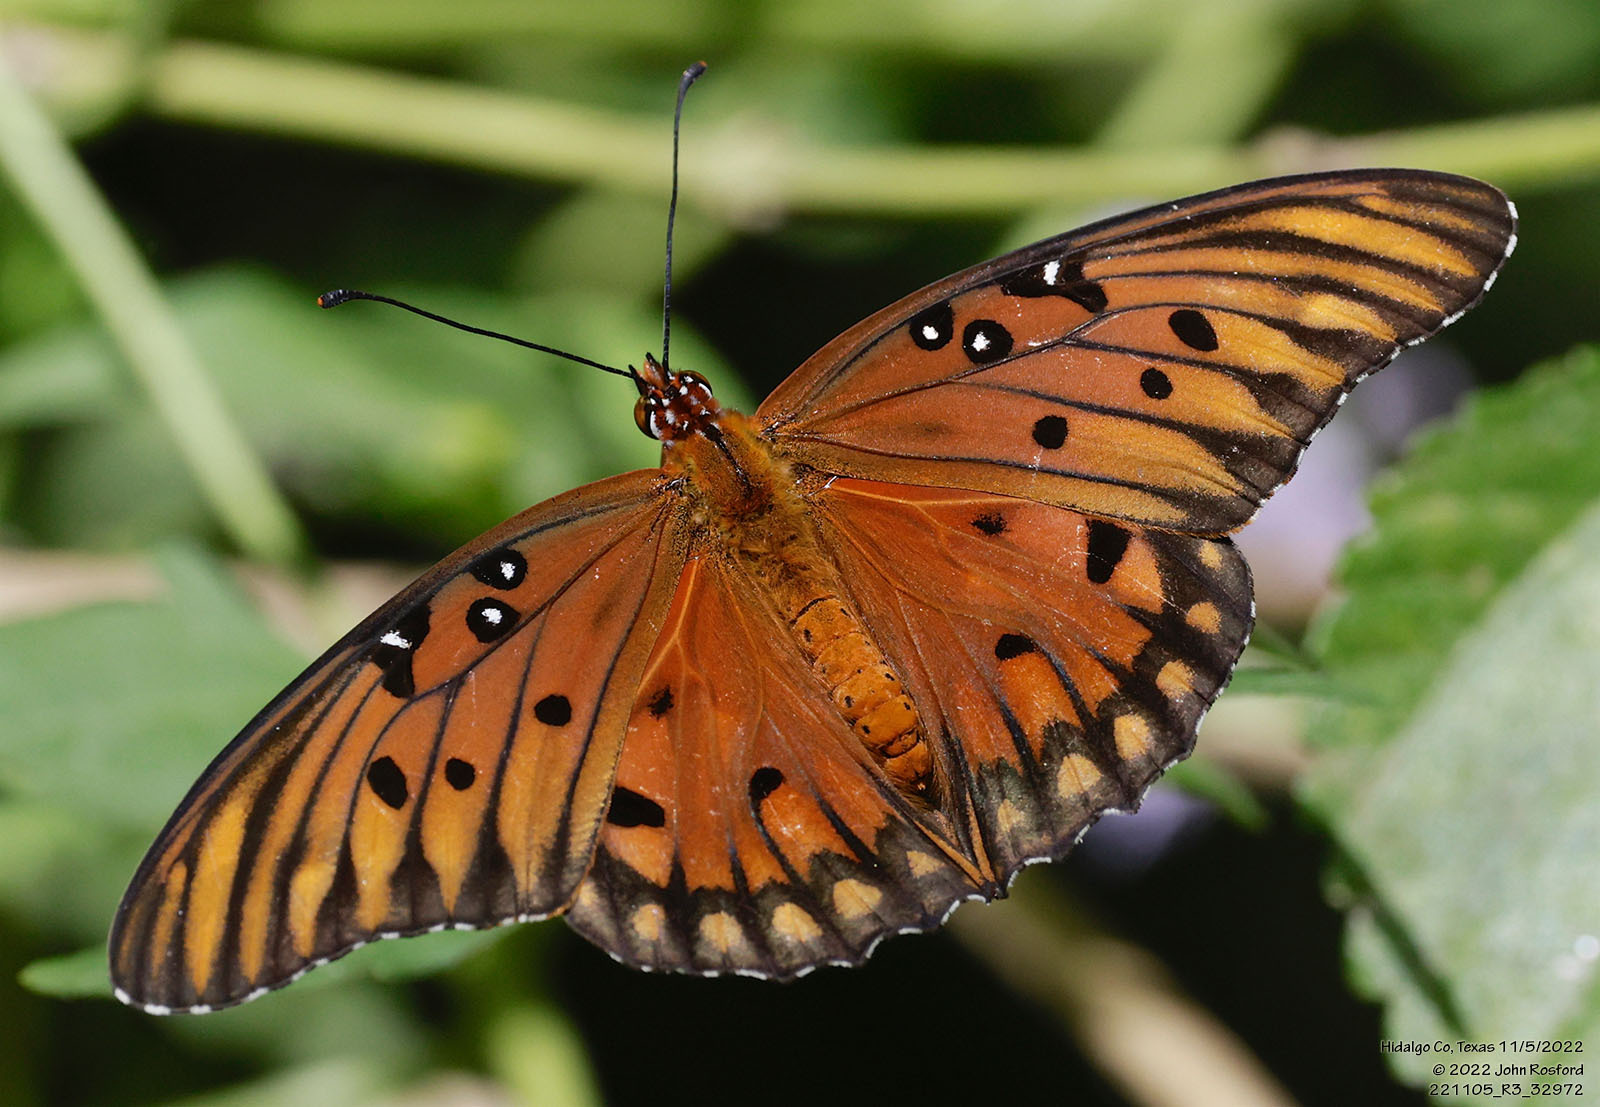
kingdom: Animalia
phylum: Arthropoda
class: Insecta
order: Lepidoptera
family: Nymphalidae
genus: Dione
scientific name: Dione vanillae
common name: Gulf fritillary
